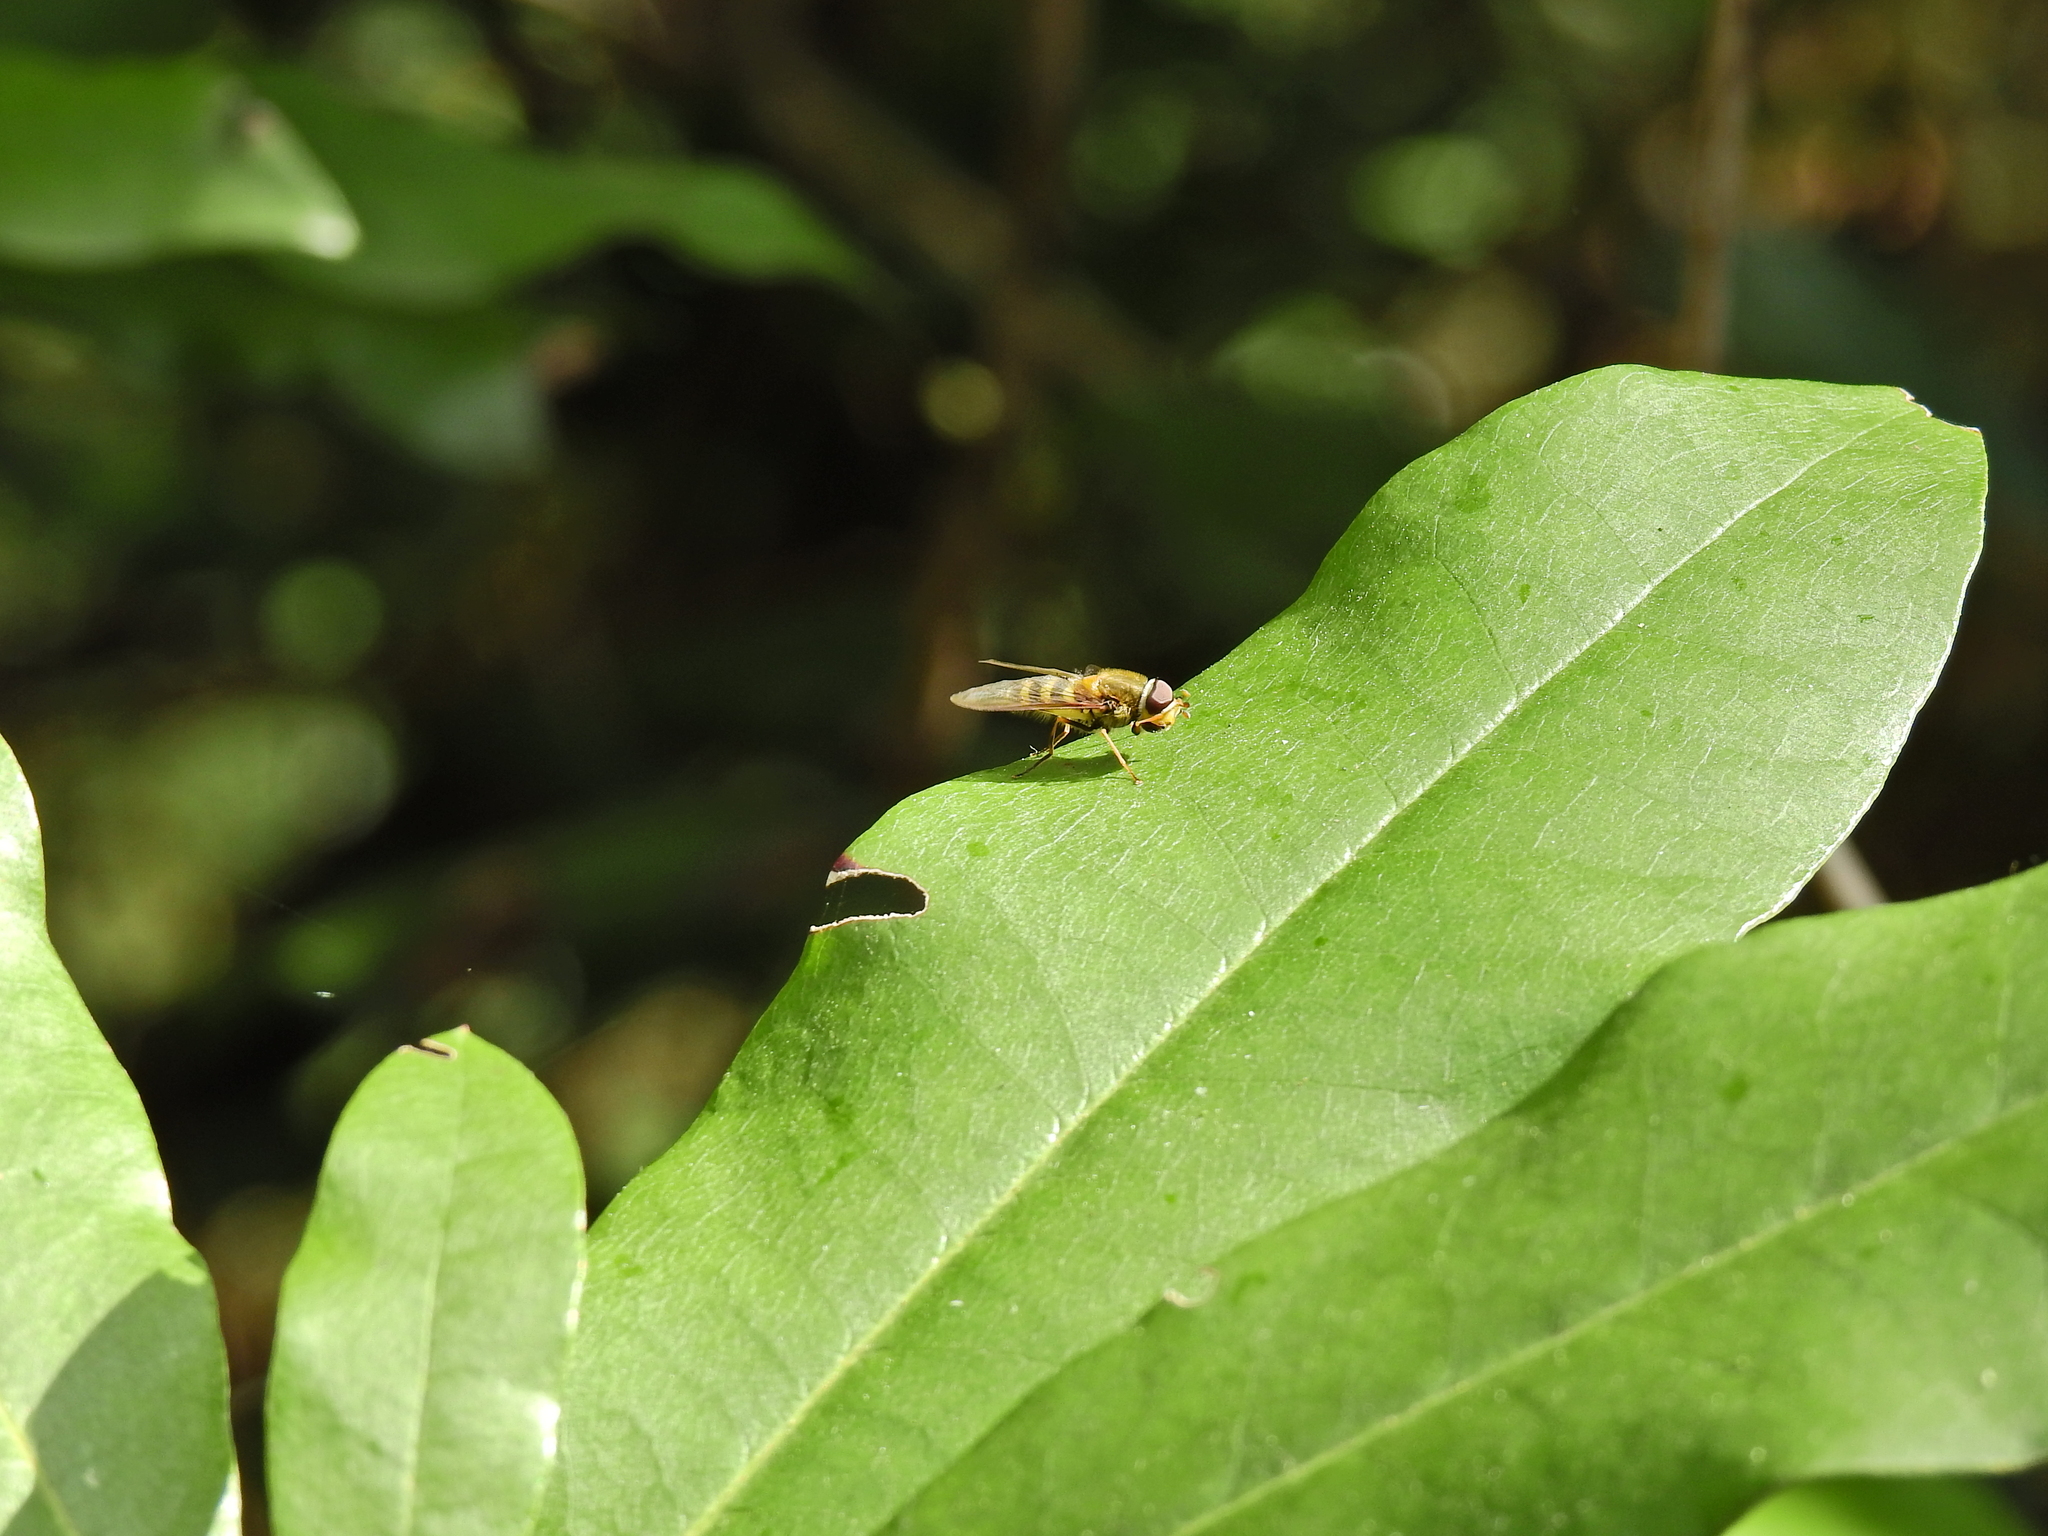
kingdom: Animalia
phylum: Arthropoda
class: Insecta
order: Diptera
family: Syrphidae
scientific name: Syrphidae
